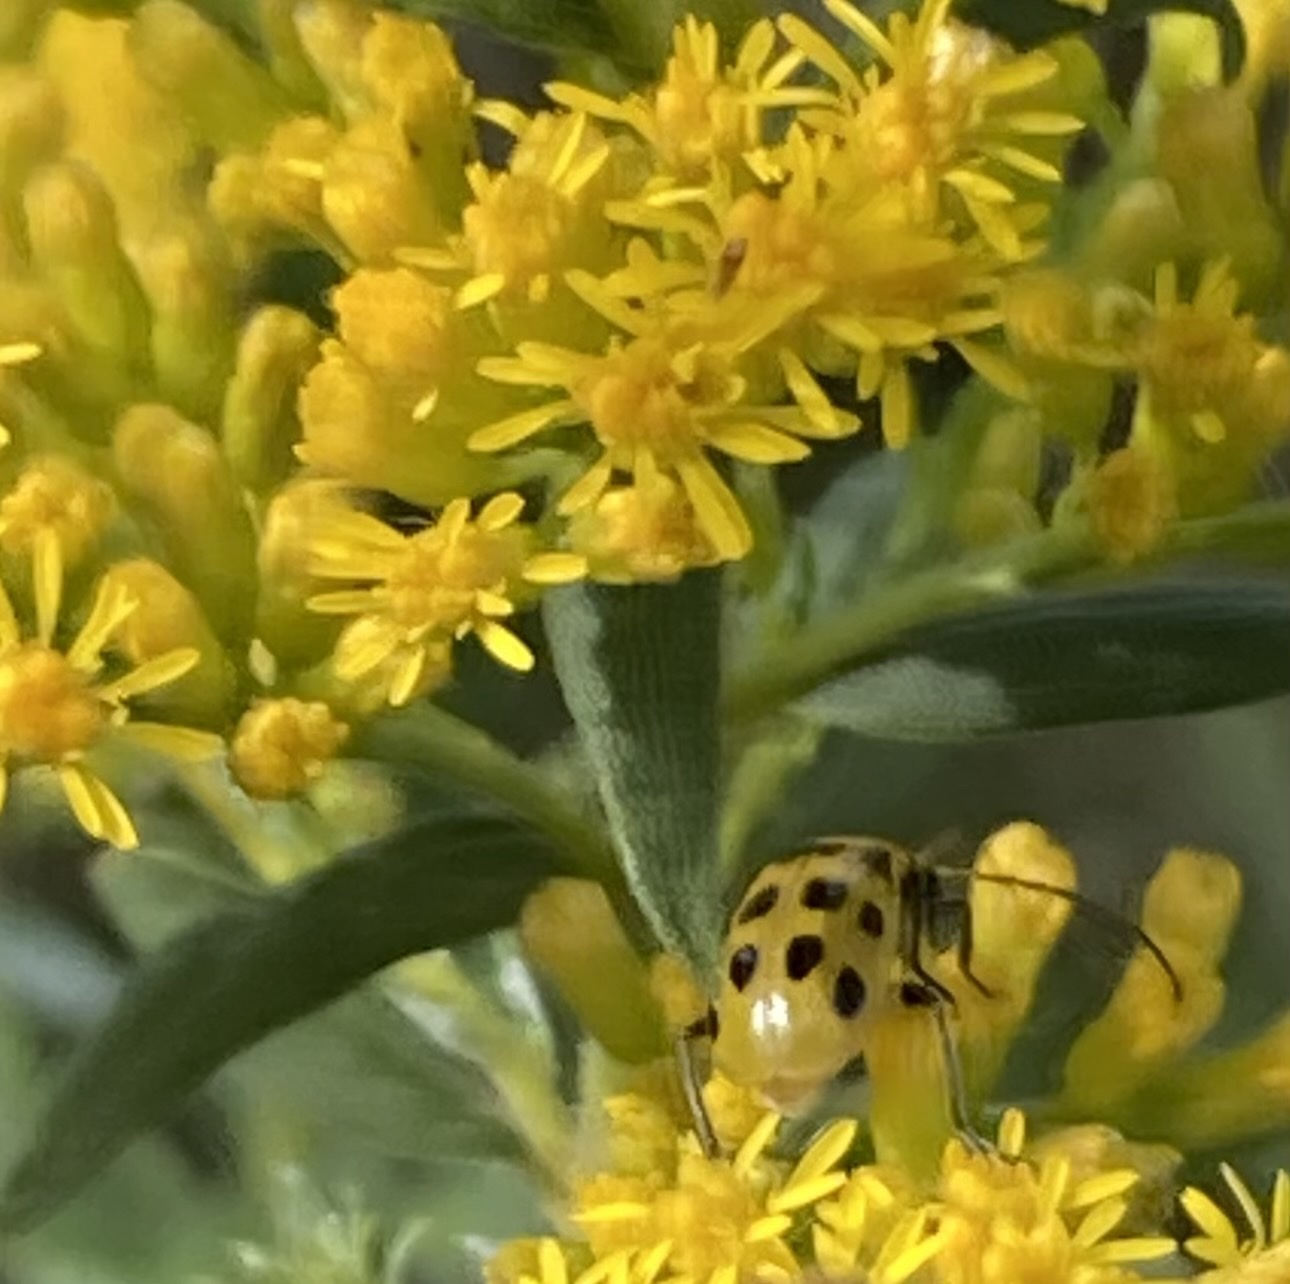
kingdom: Animalia
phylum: Arthropoda
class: Insecta
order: Coleoptera
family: Chrysomelidae
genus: Diabrotica
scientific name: Diabrotica undecimpunctata
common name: Spotted cucumber beetle
